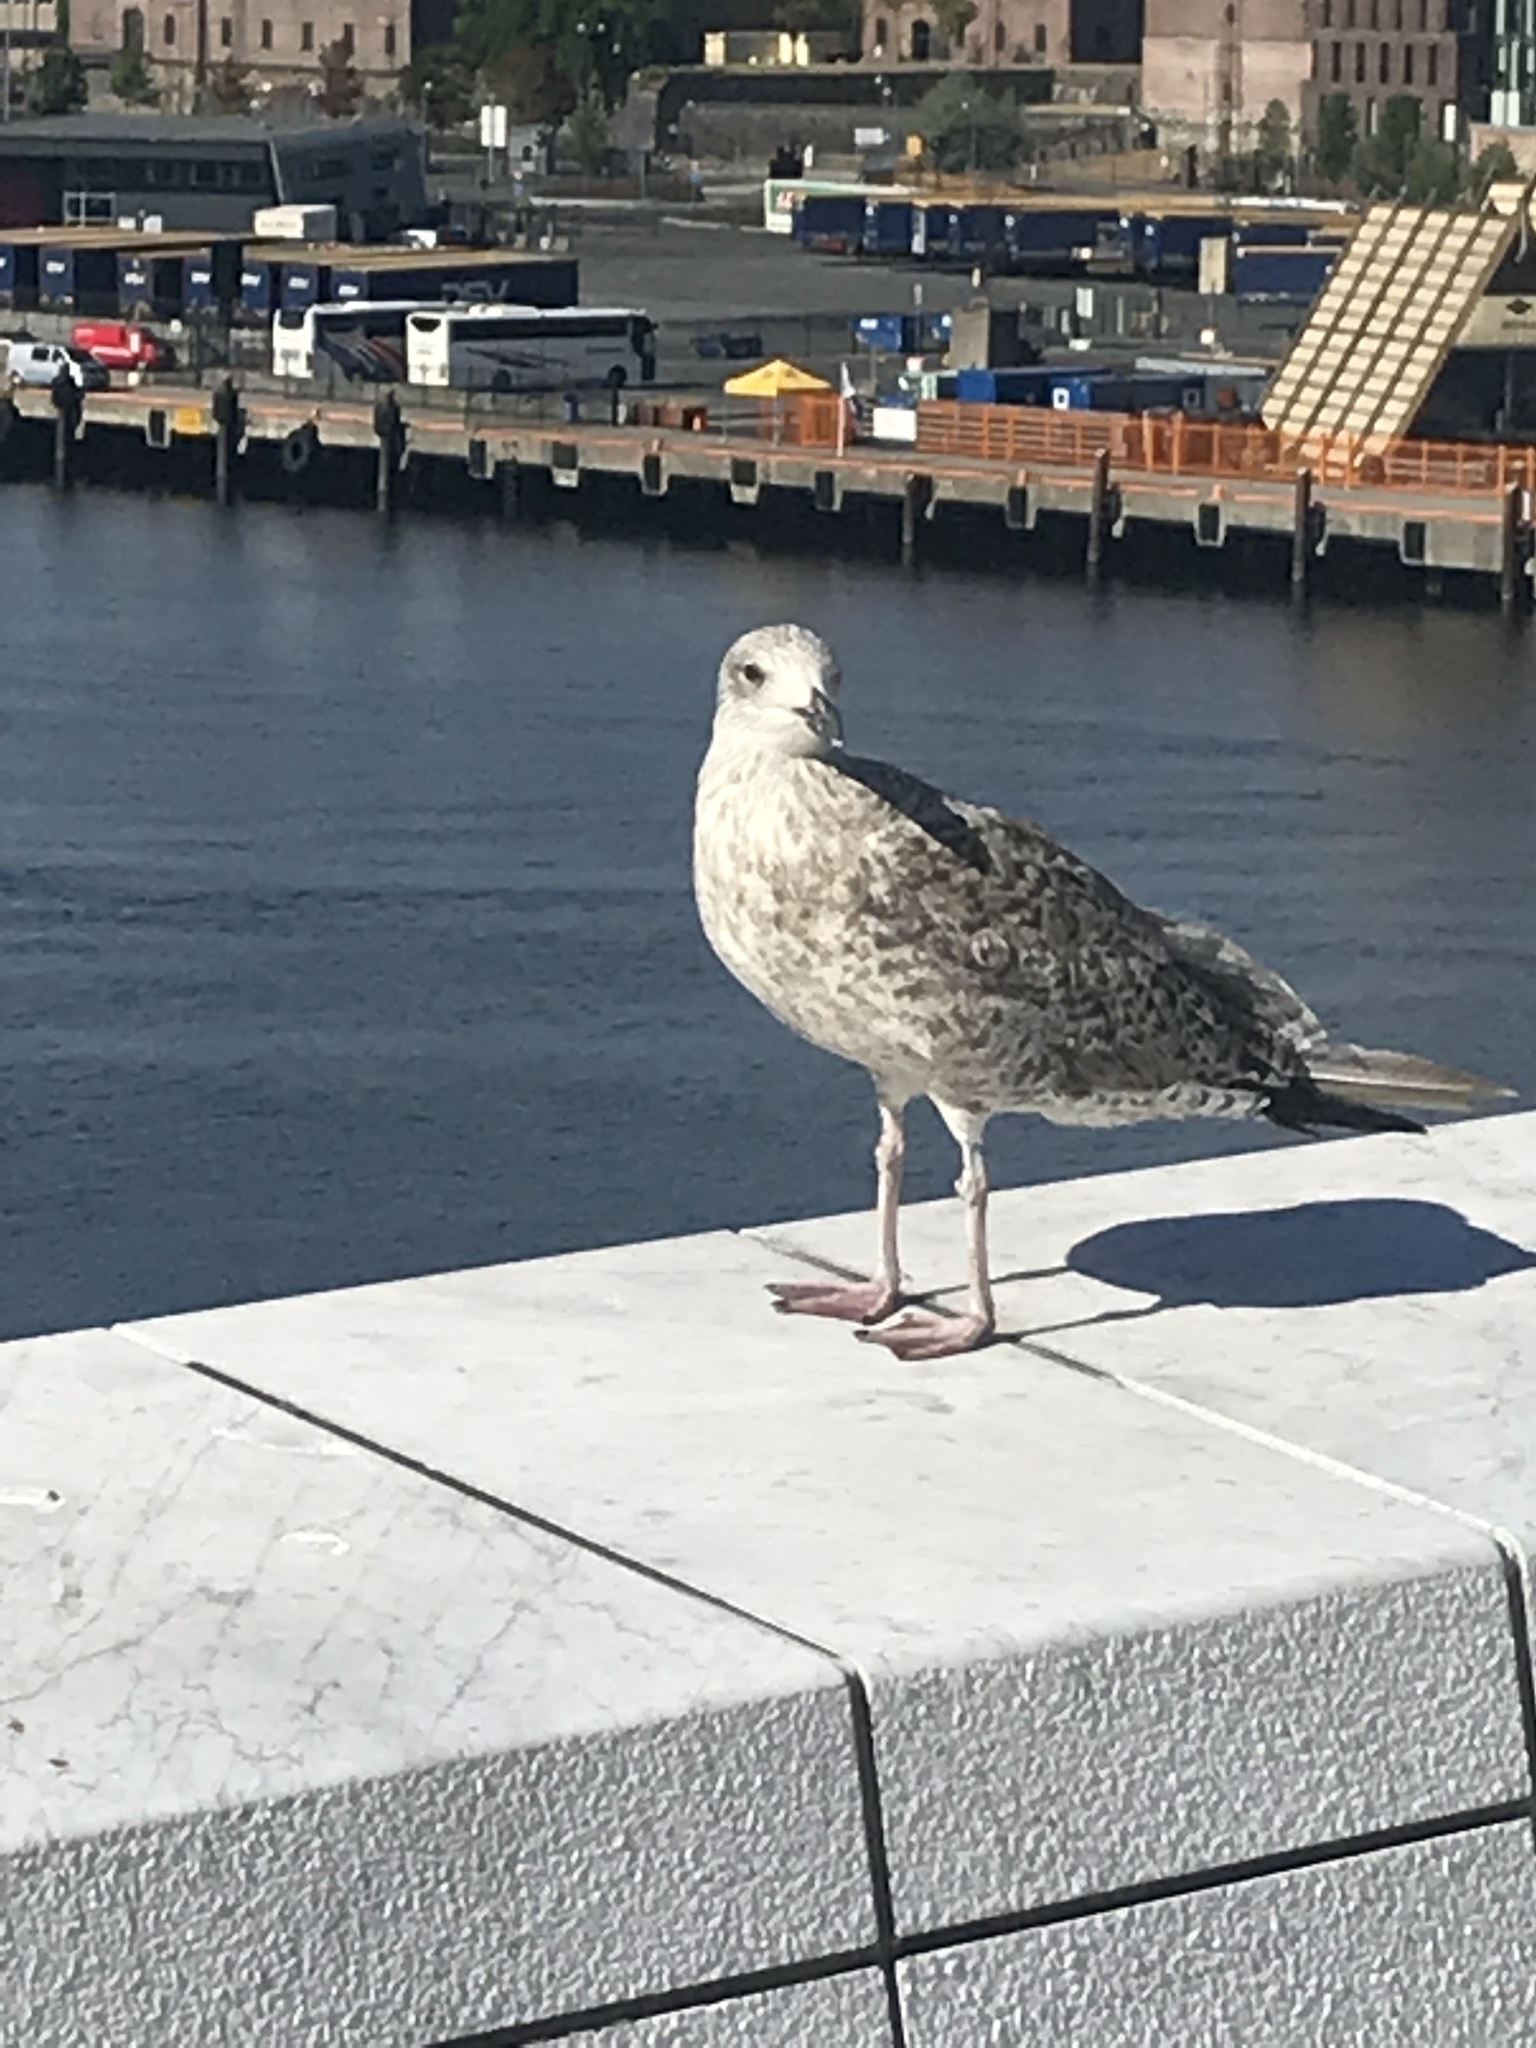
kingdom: Animalia
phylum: Chordata
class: Aves
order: Charadriiformes
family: Laridae
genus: Larus
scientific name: Larus marinus
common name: Great black-backed gull
